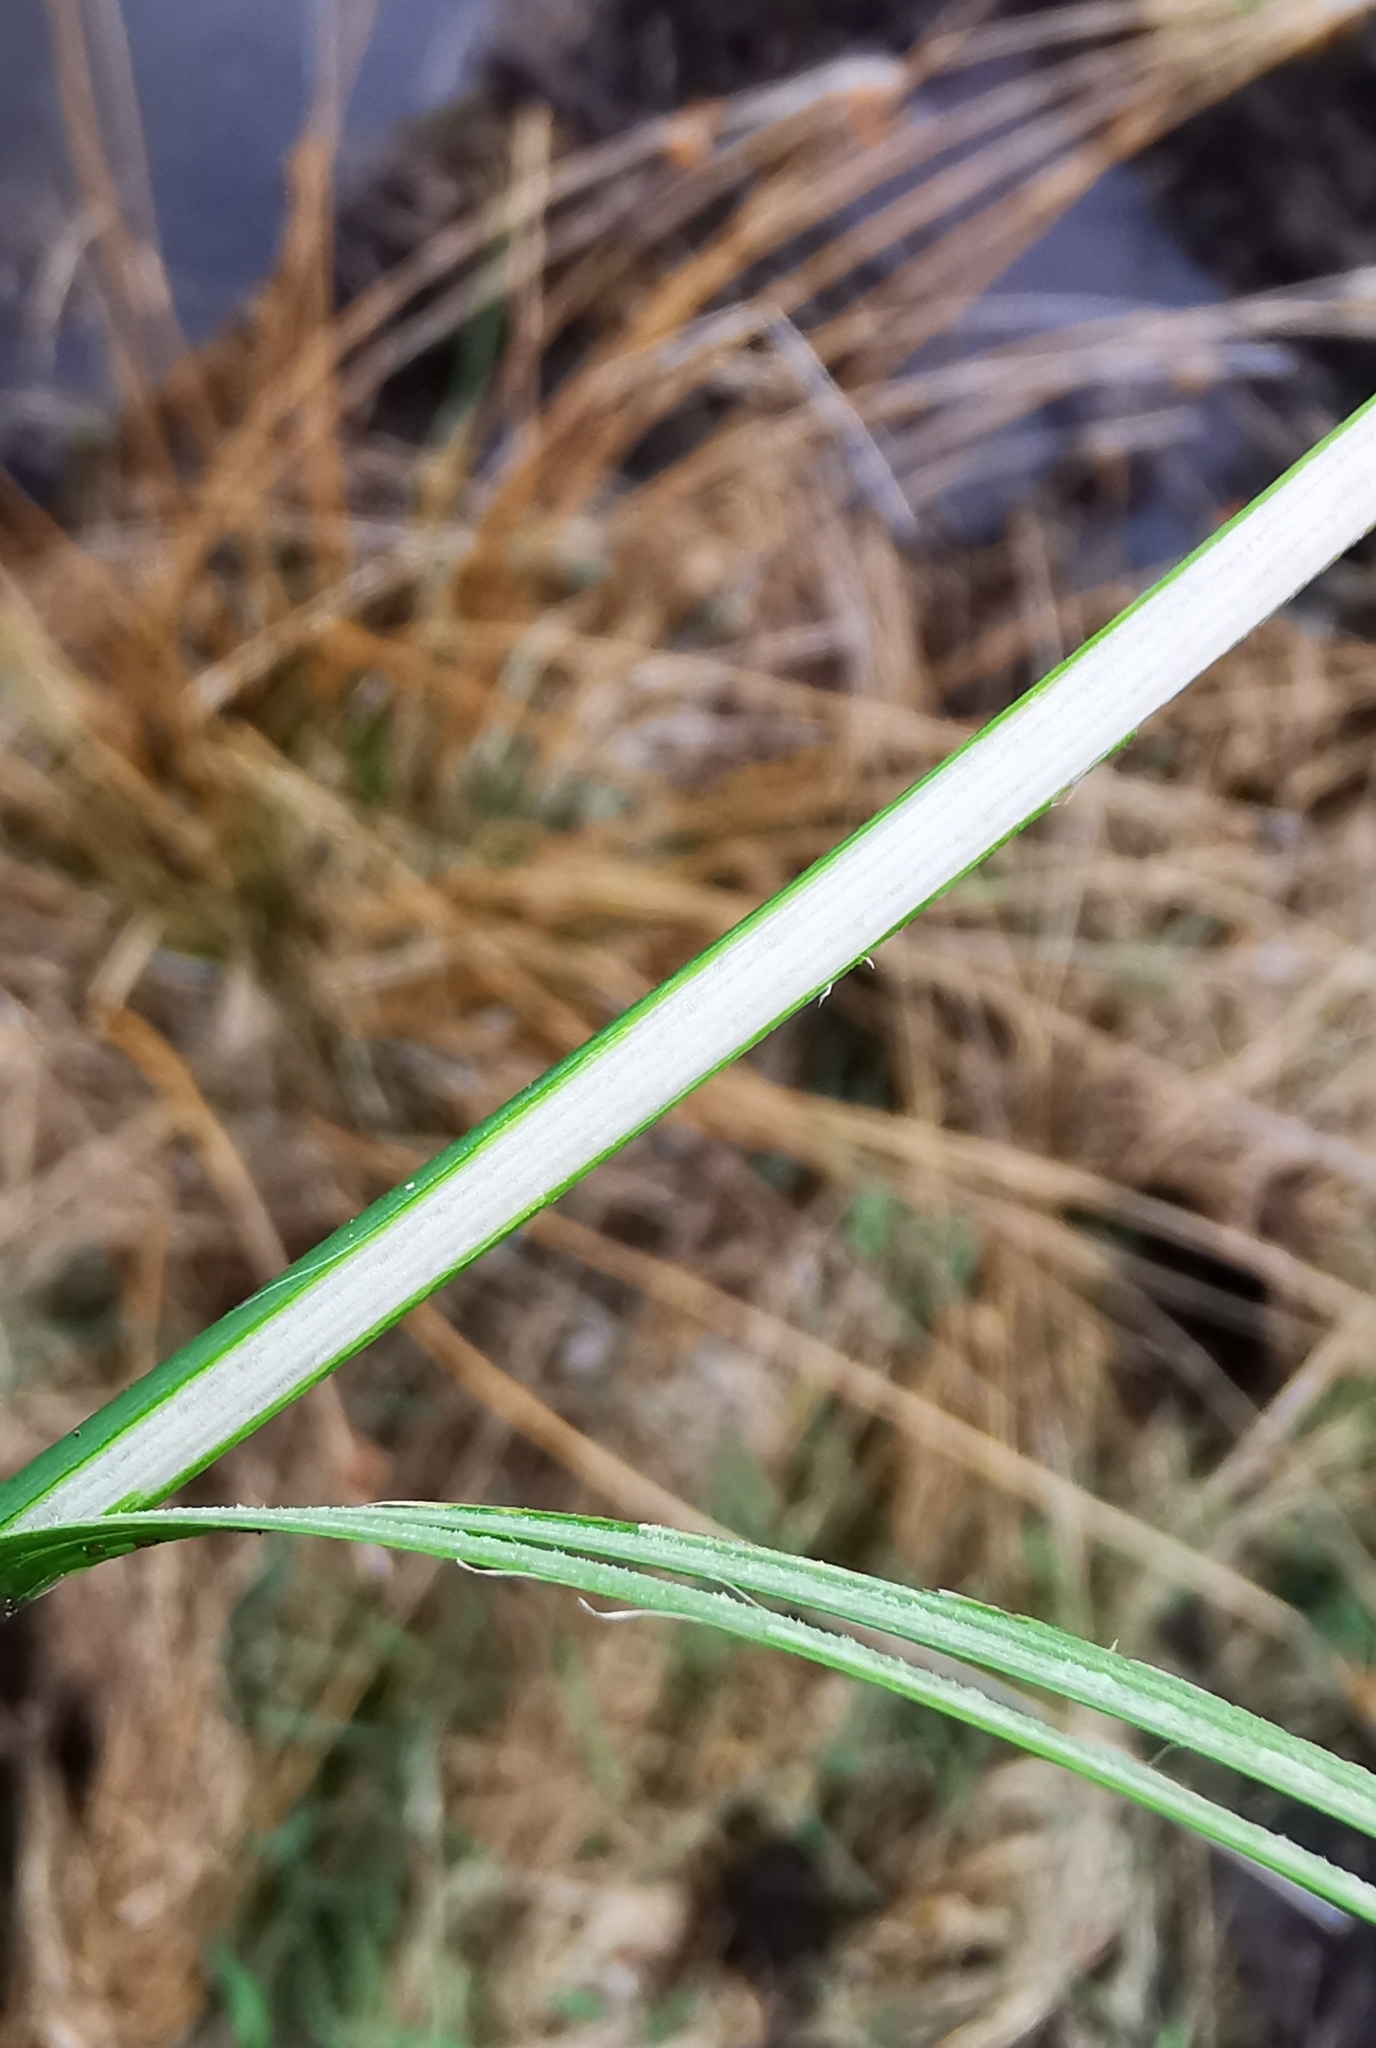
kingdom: Plantae
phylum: Tracheophyta
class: Liliopsida
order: Poales
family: Juncaceae
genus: Juncus
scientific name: Juncus effusus
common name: Soft rush
